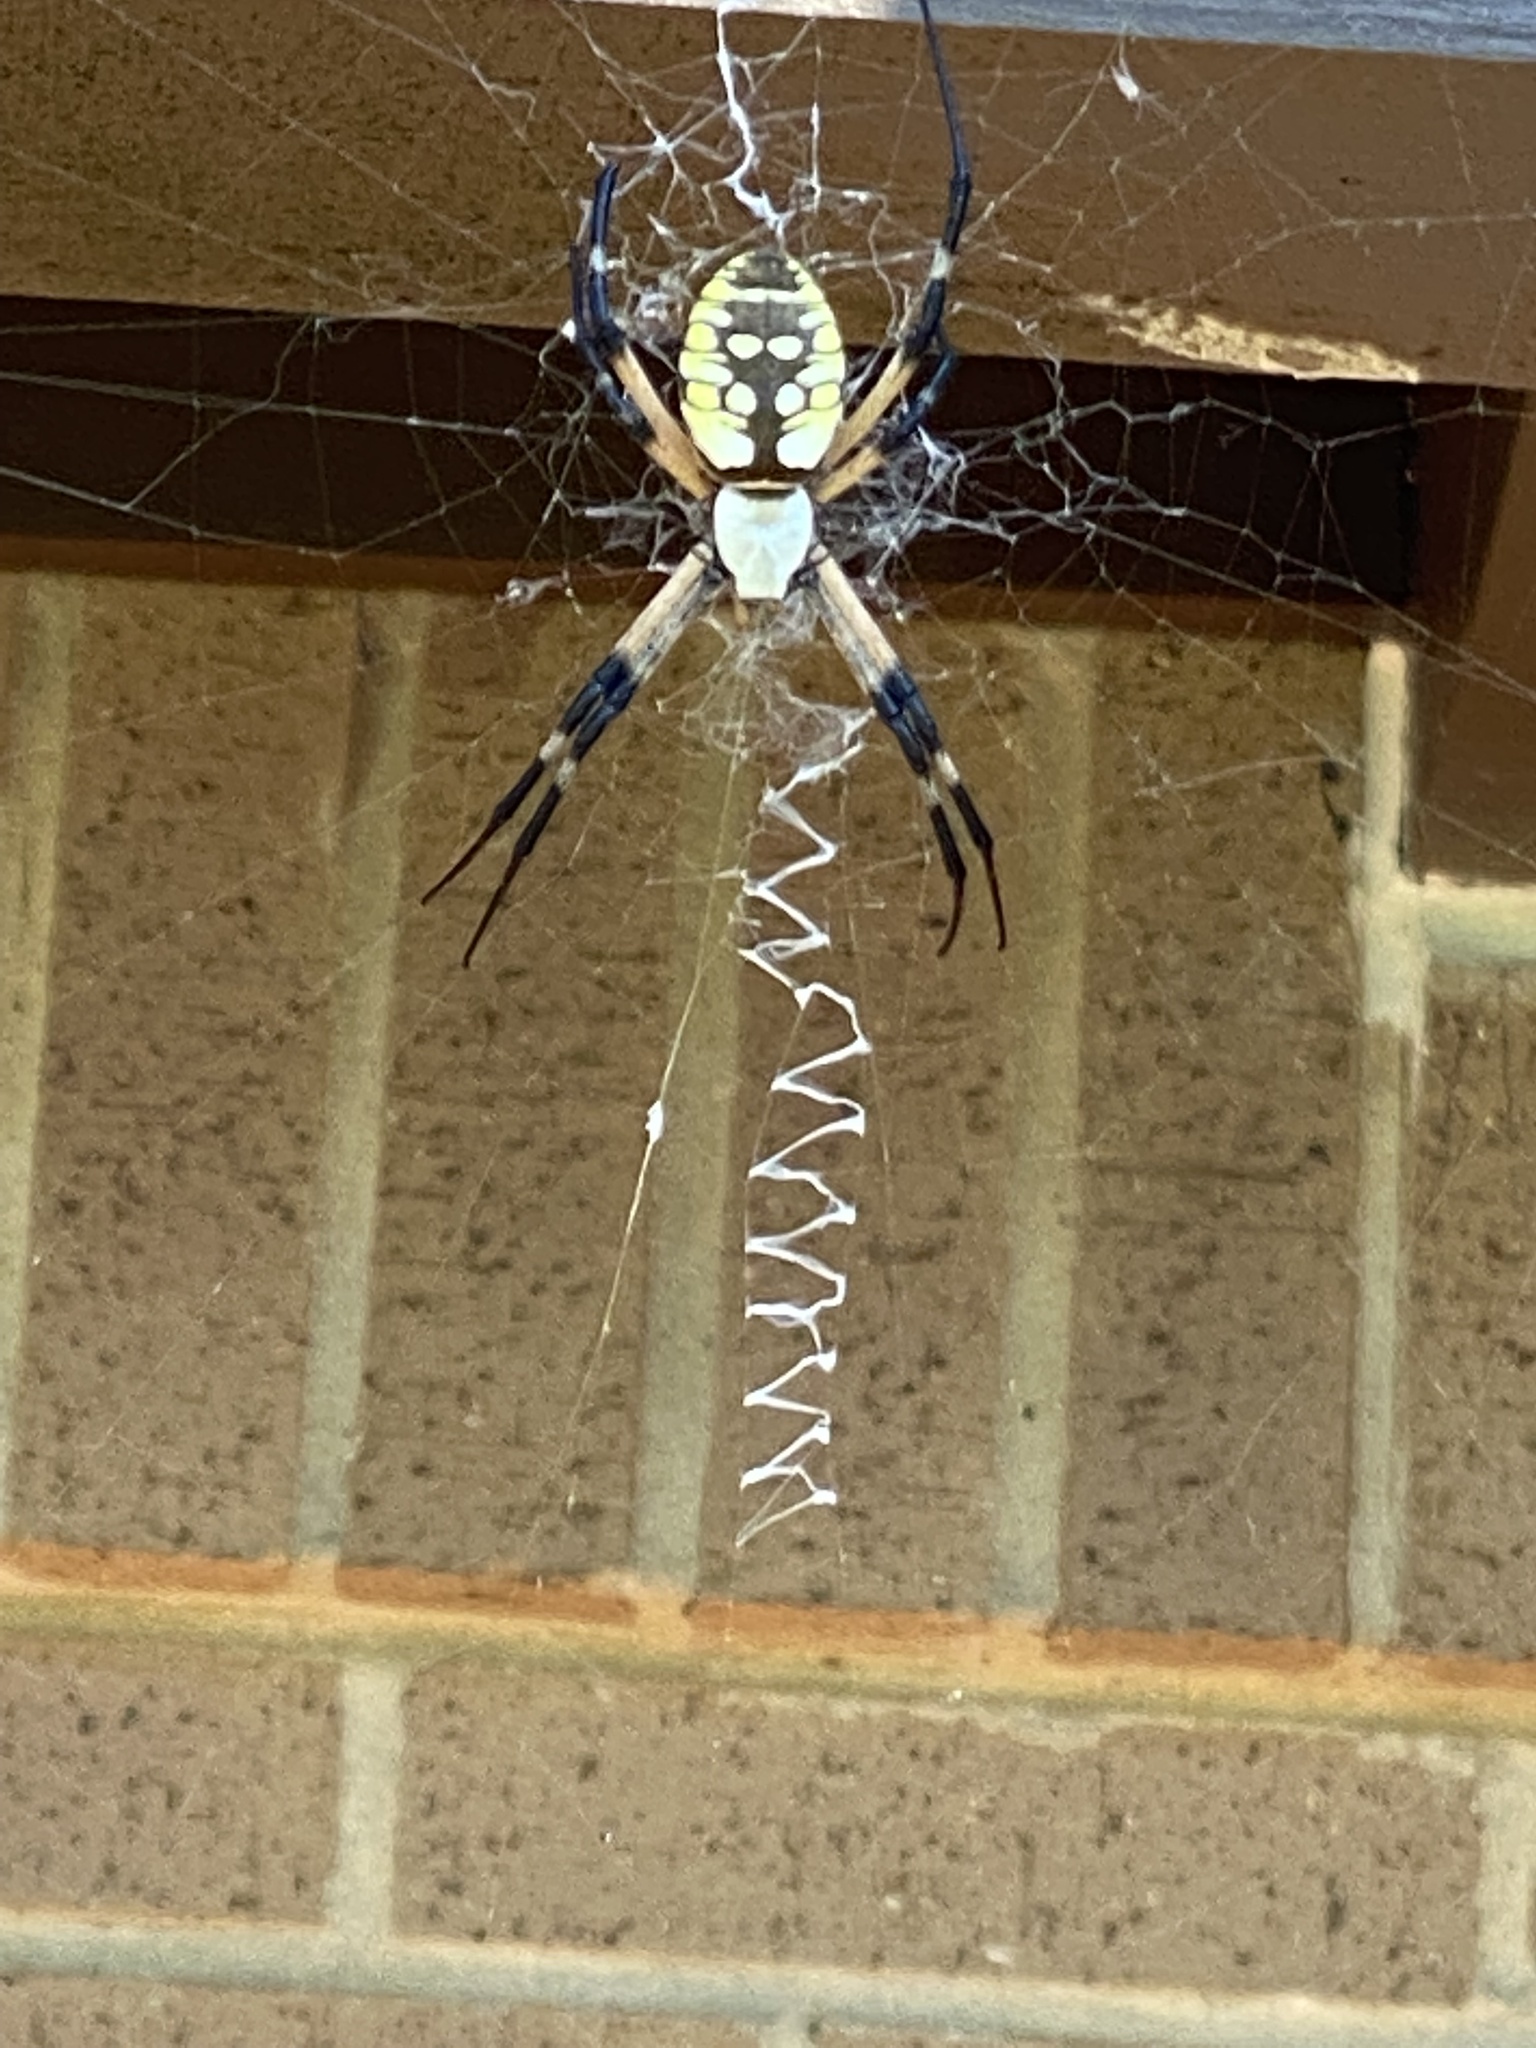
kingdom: Animalia
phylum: Arthropoda
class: Arachnida
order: Araneae
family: Araneidae
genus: Argiope
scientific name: Argiope aurantia
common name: Orb weavers
